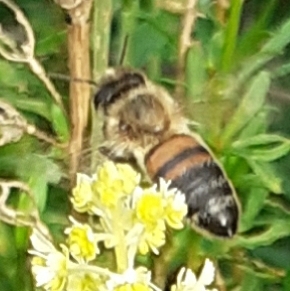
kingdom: Animalia
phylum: Arthropoda
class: Insecta
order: Hymenoptera
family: Apidae
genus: Apis
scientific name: Apis mellifera
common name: Honey bee
